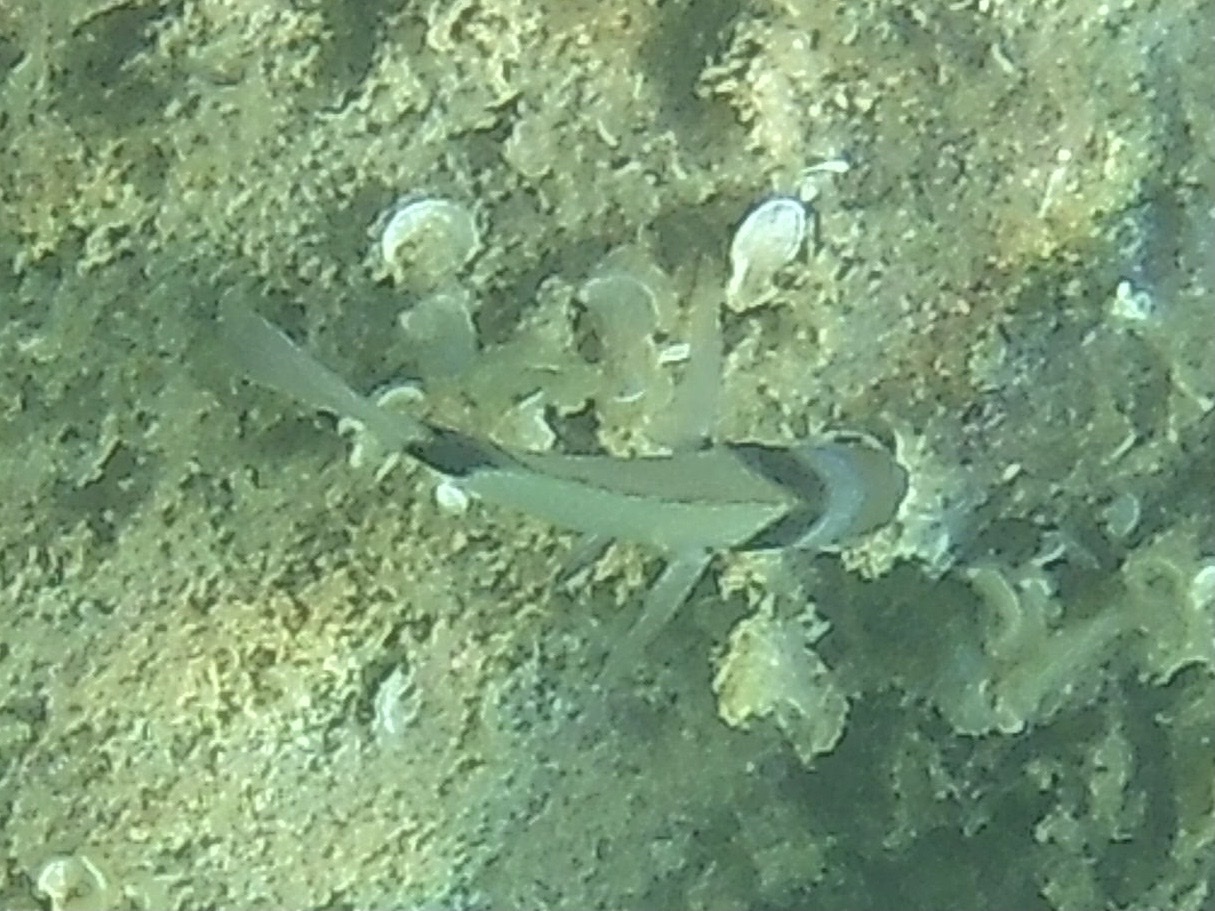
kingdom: Animalia
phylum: Chordata
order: Perciformes
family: Sparidae
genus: Diplodus
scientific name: Diplodus vulgaris
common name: Common two-banded seabream
